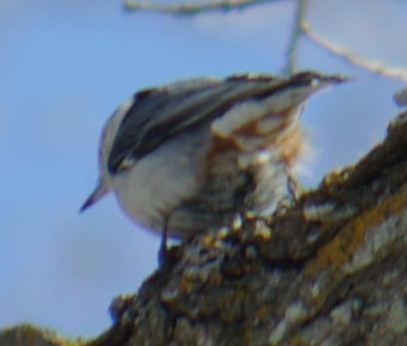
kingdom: Animalia
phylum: Chordata
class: Aves
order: Passeriformes
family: Sittidae
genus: Sitta
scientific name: Sitta carolinensis
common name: White-breasted nuthatch
